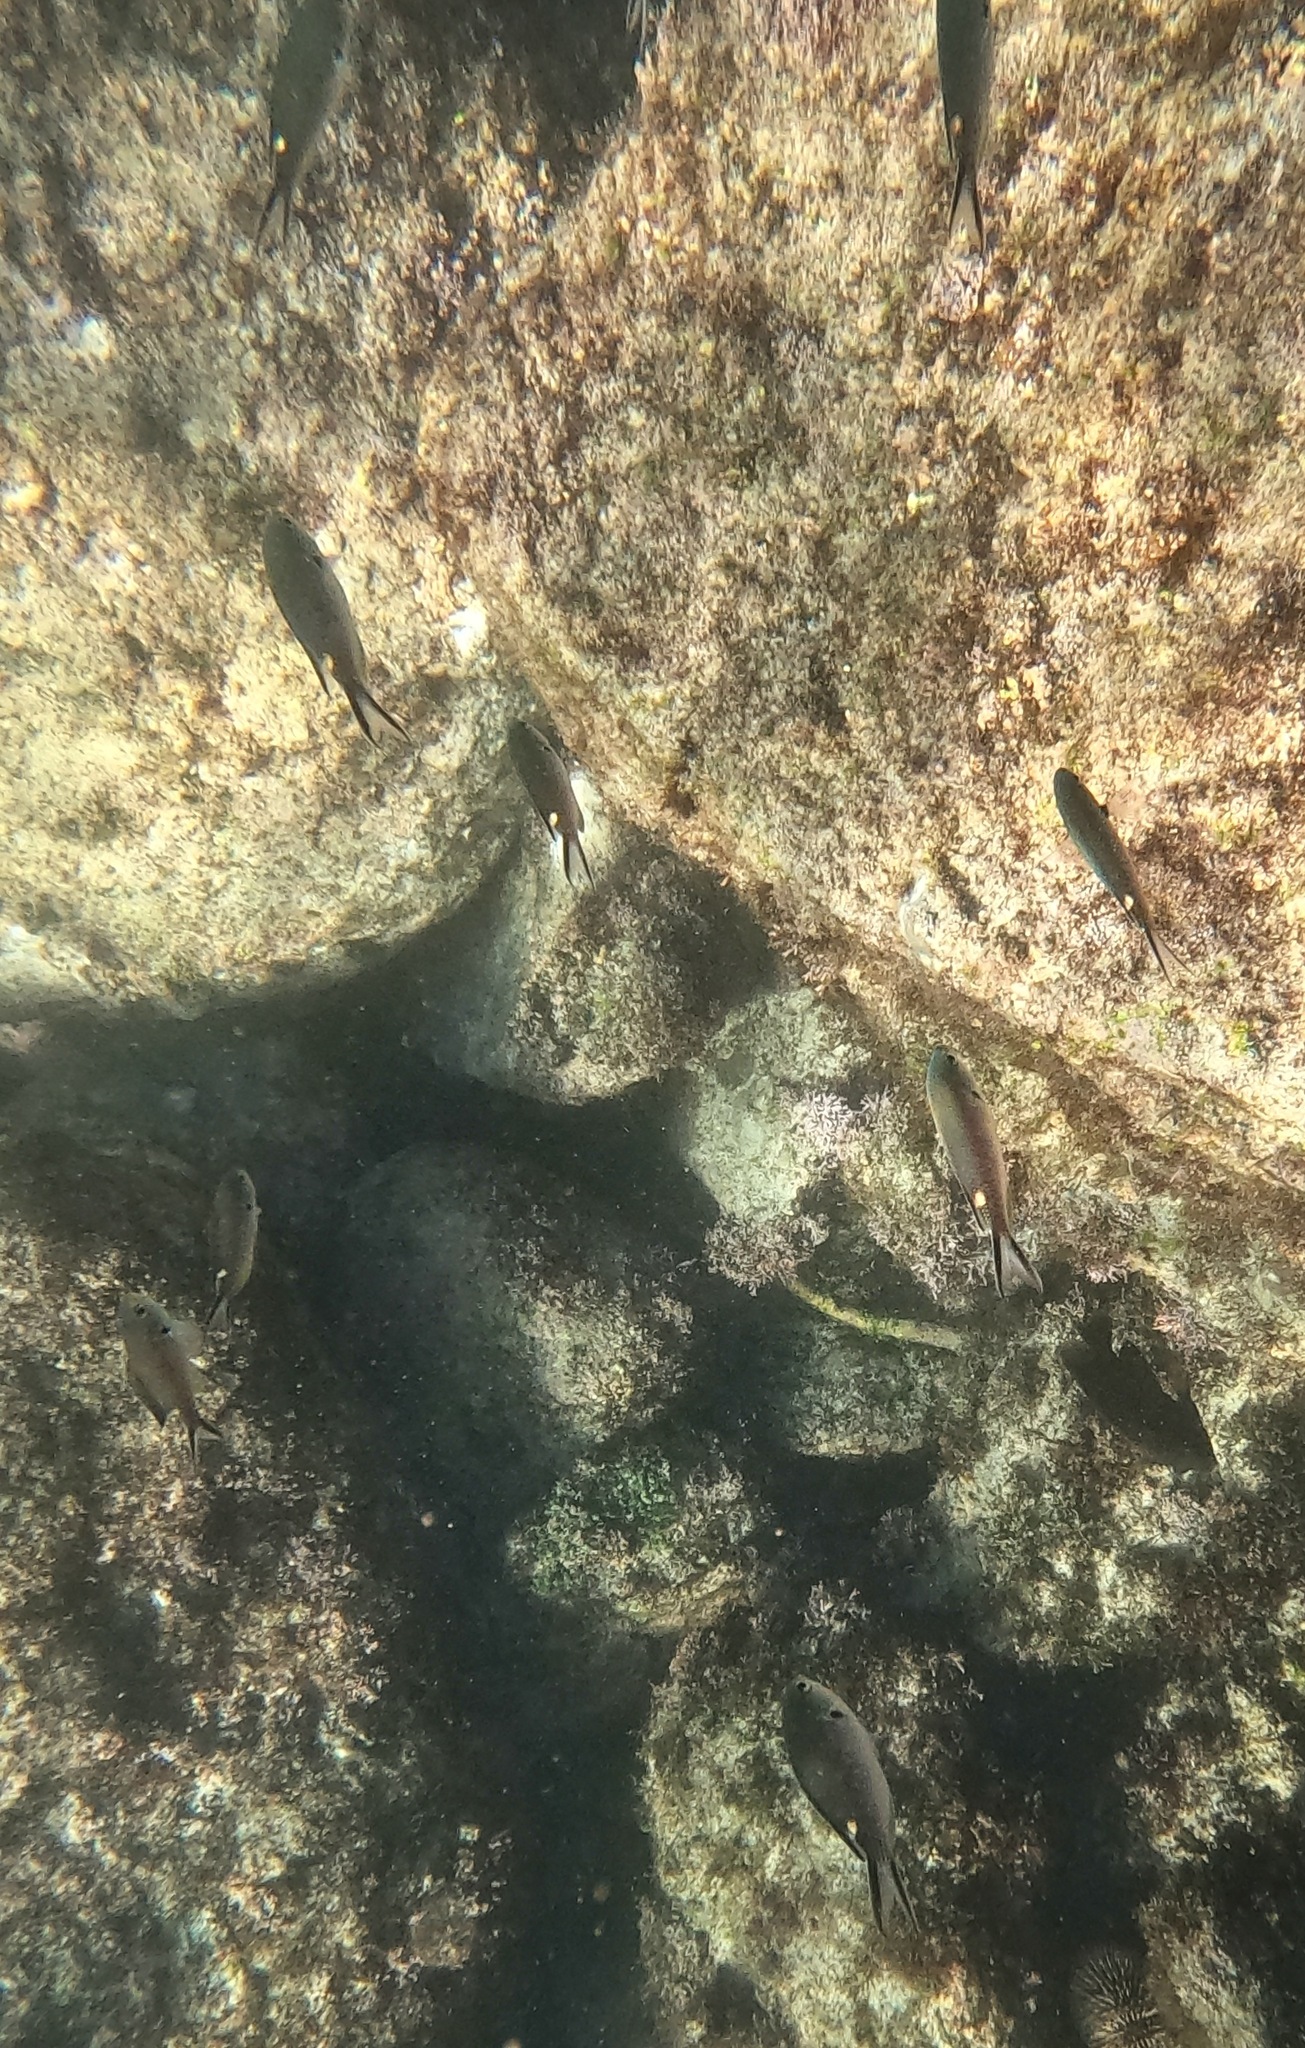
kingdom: Animalia
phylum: Chordata
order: Perciformes
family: Pomacentridae
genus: Chromis
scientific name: Chromis atrilobata
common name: Scissortail damselfish
